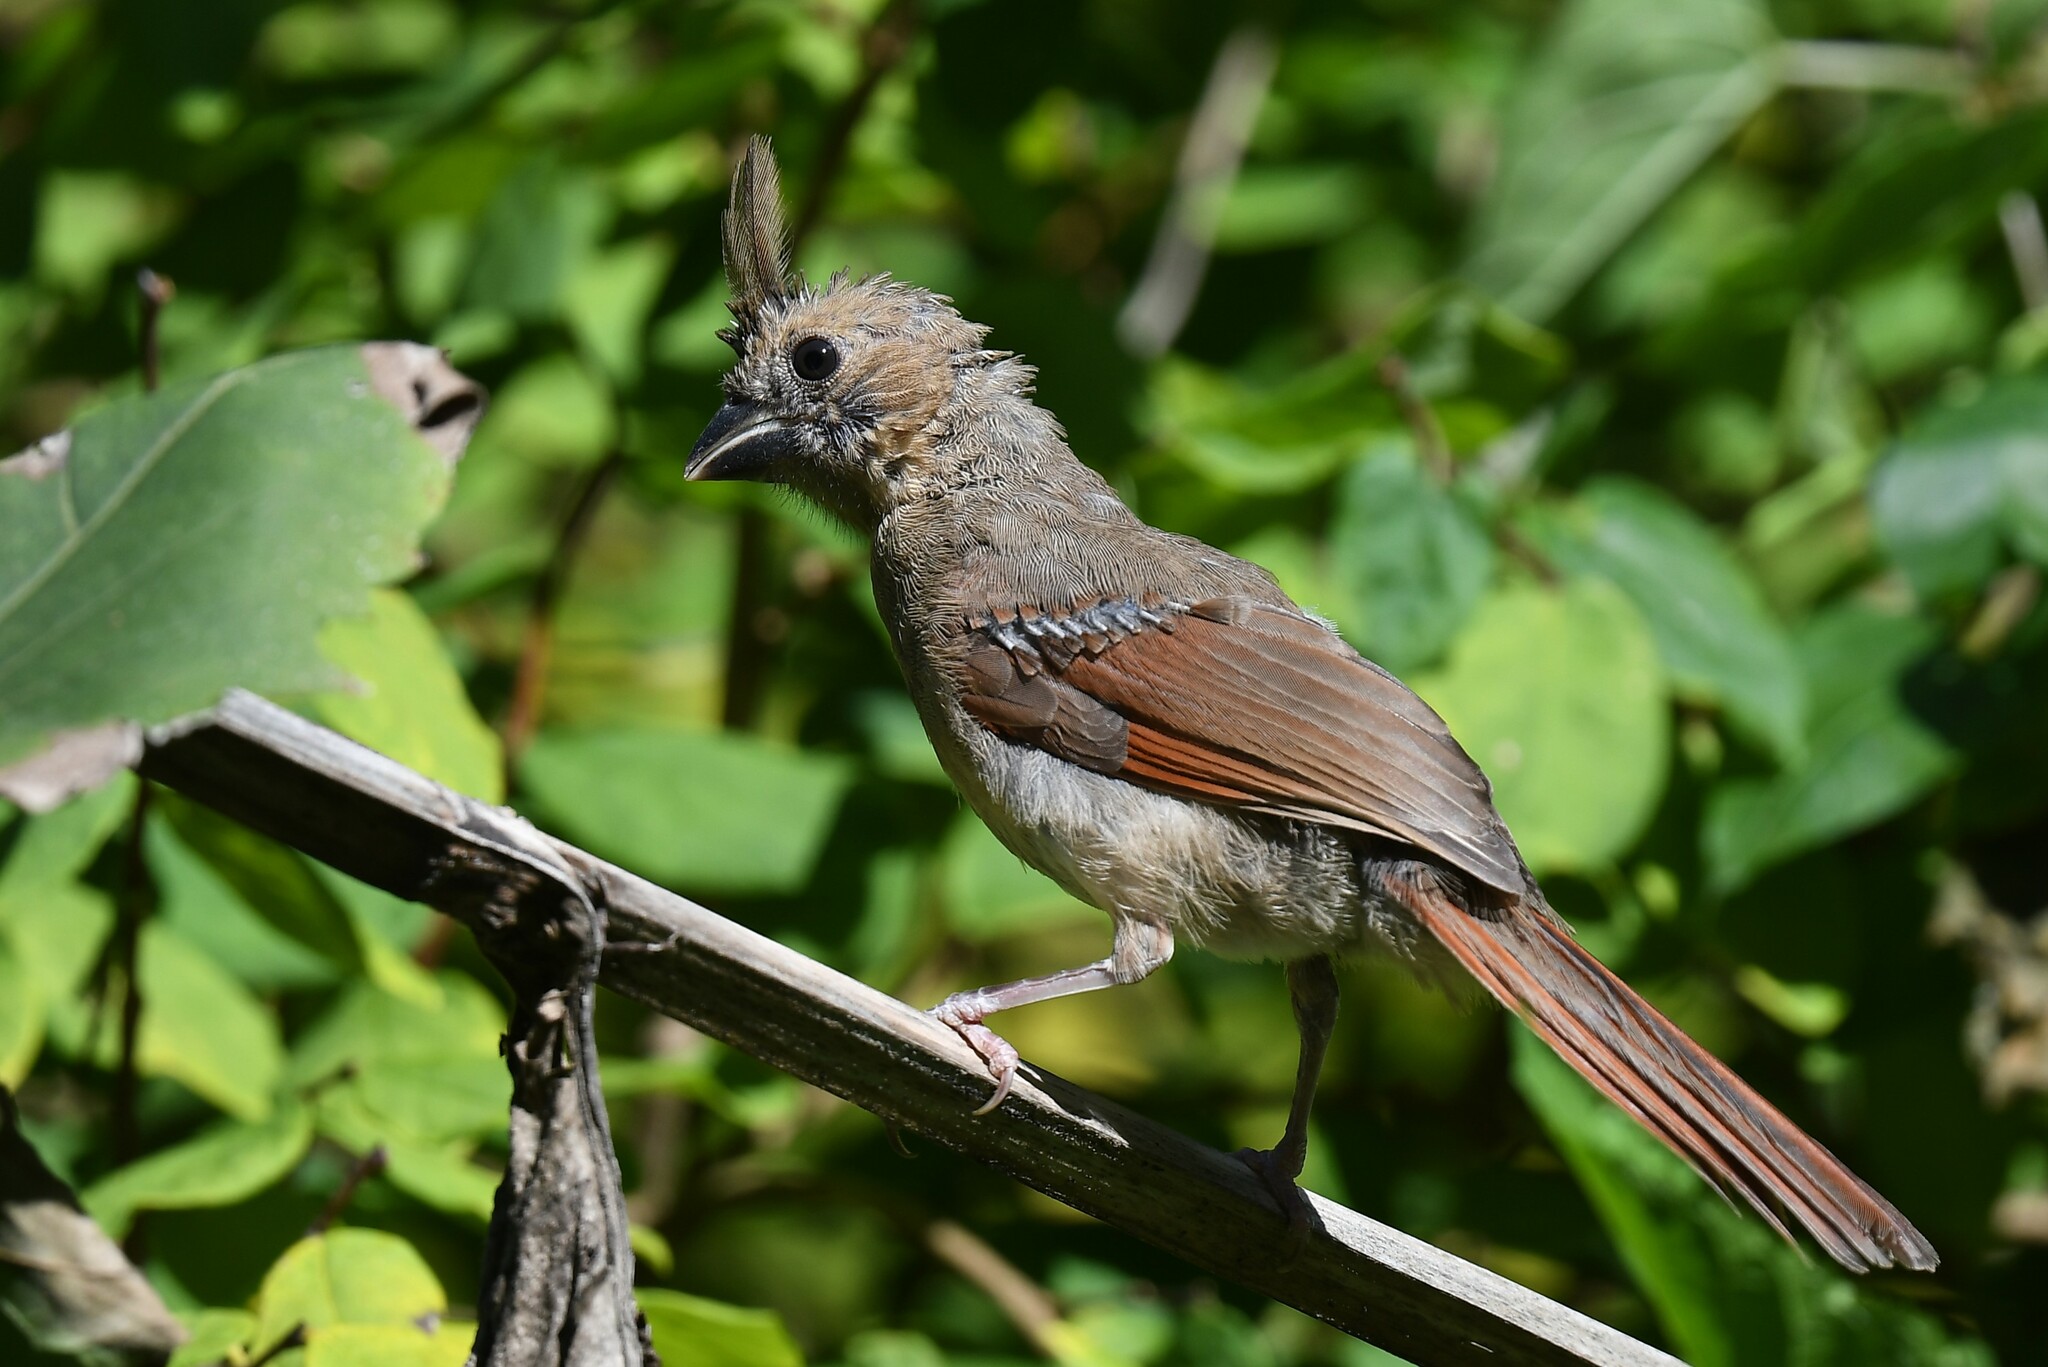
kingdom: Animalia
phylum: Chordata
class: Aves
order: Passeriformes
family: Cardinalidae
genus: Cardinalis
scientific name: Cardinalis cardinalis
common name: Northern cardinal
